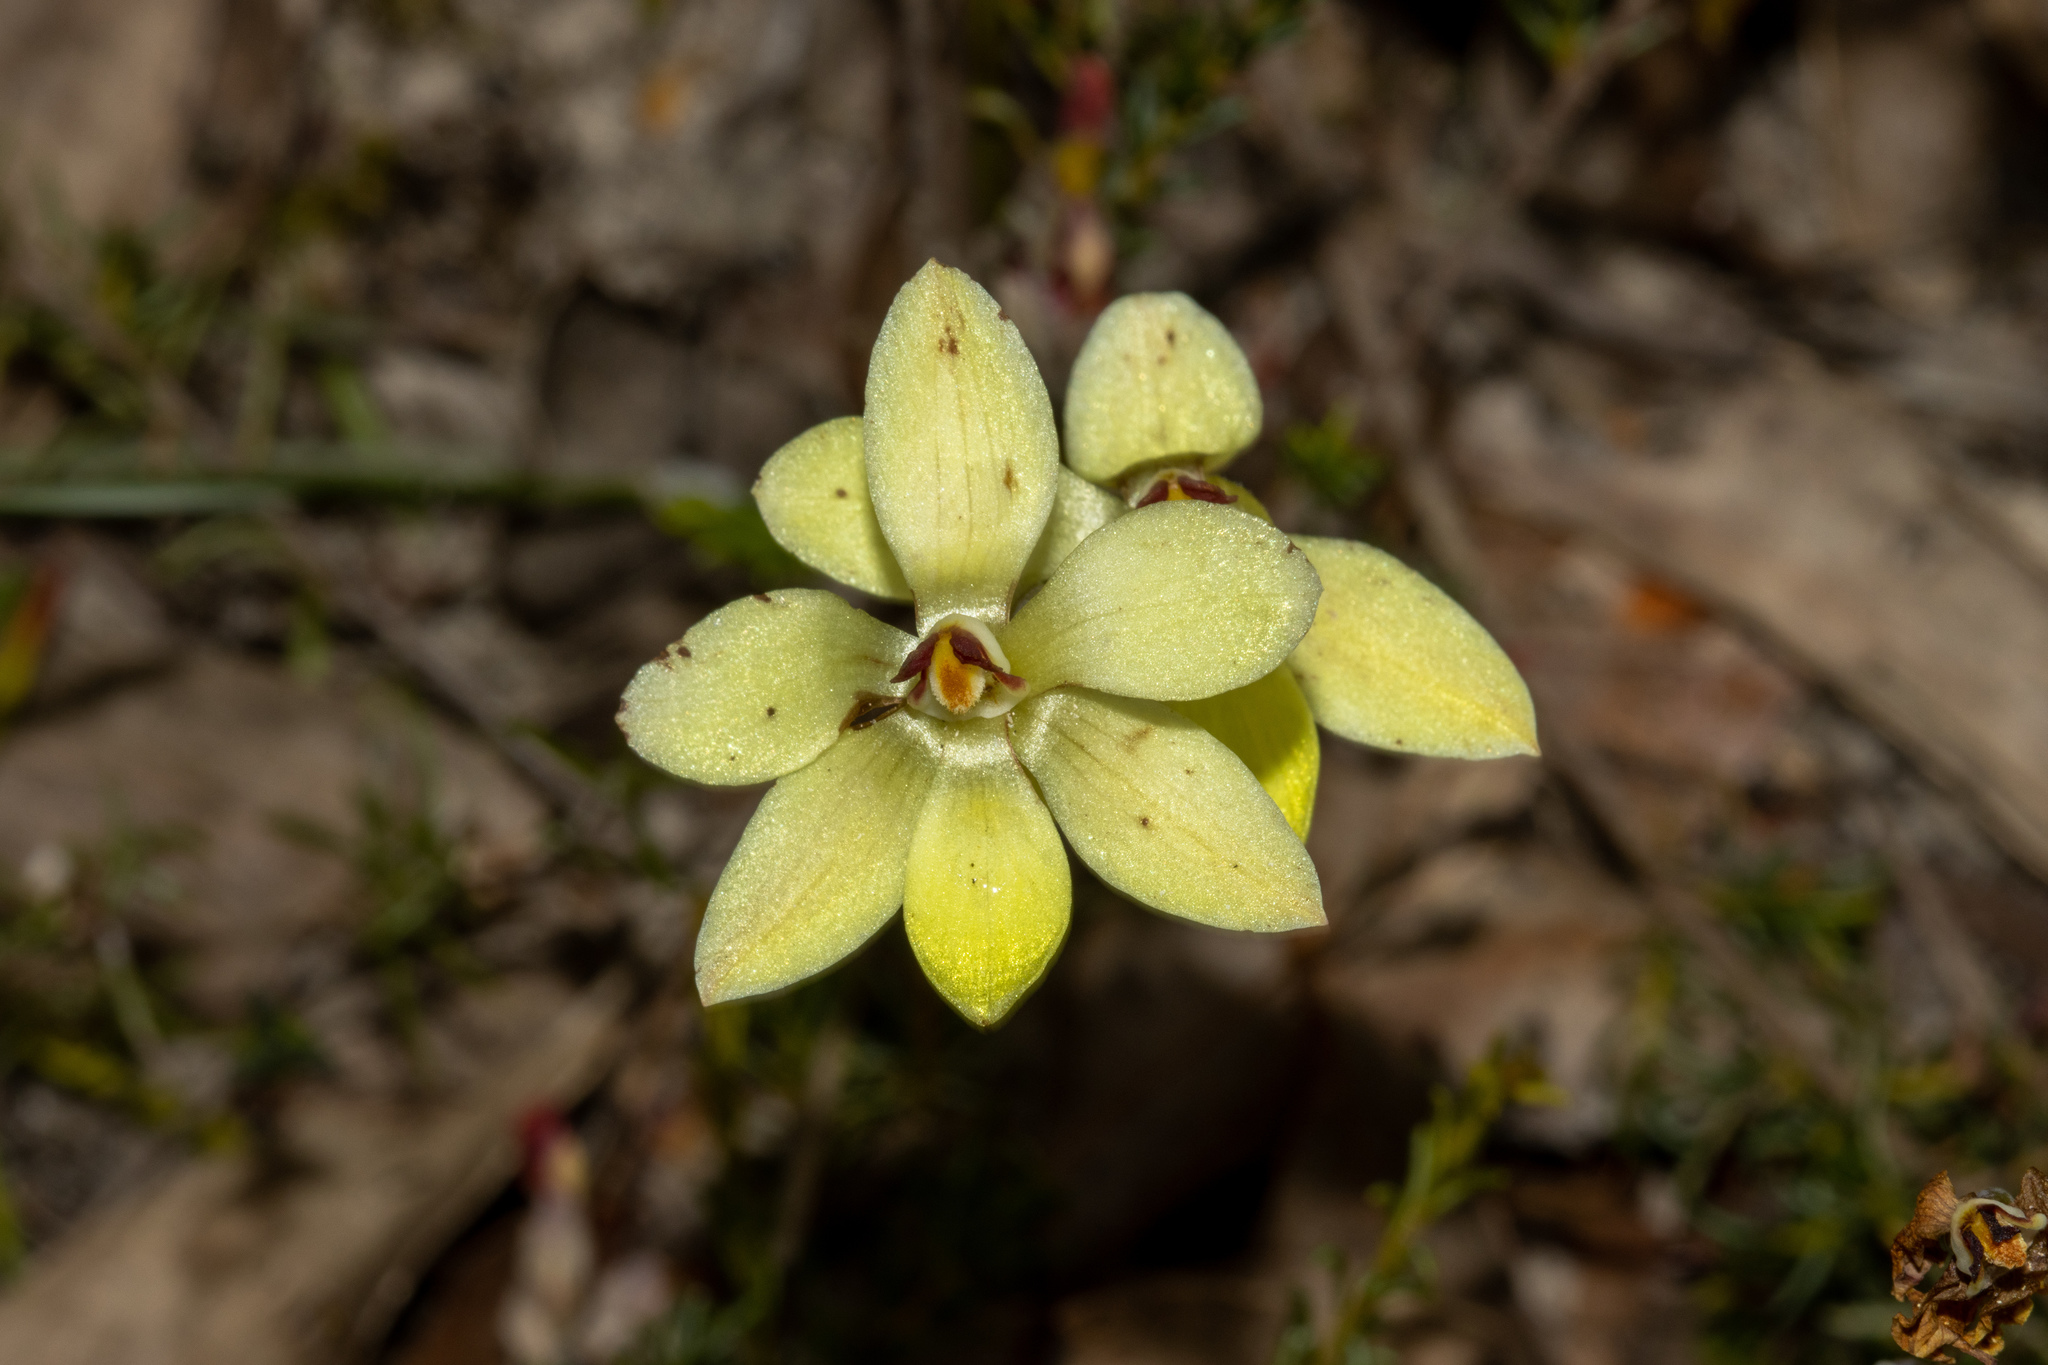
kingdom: Plantae
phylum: Tracheophyta
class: Liliopsida
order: Asparagales
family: Orchidaceae
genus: Thelymitra
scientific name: Thelymitra antennifera
